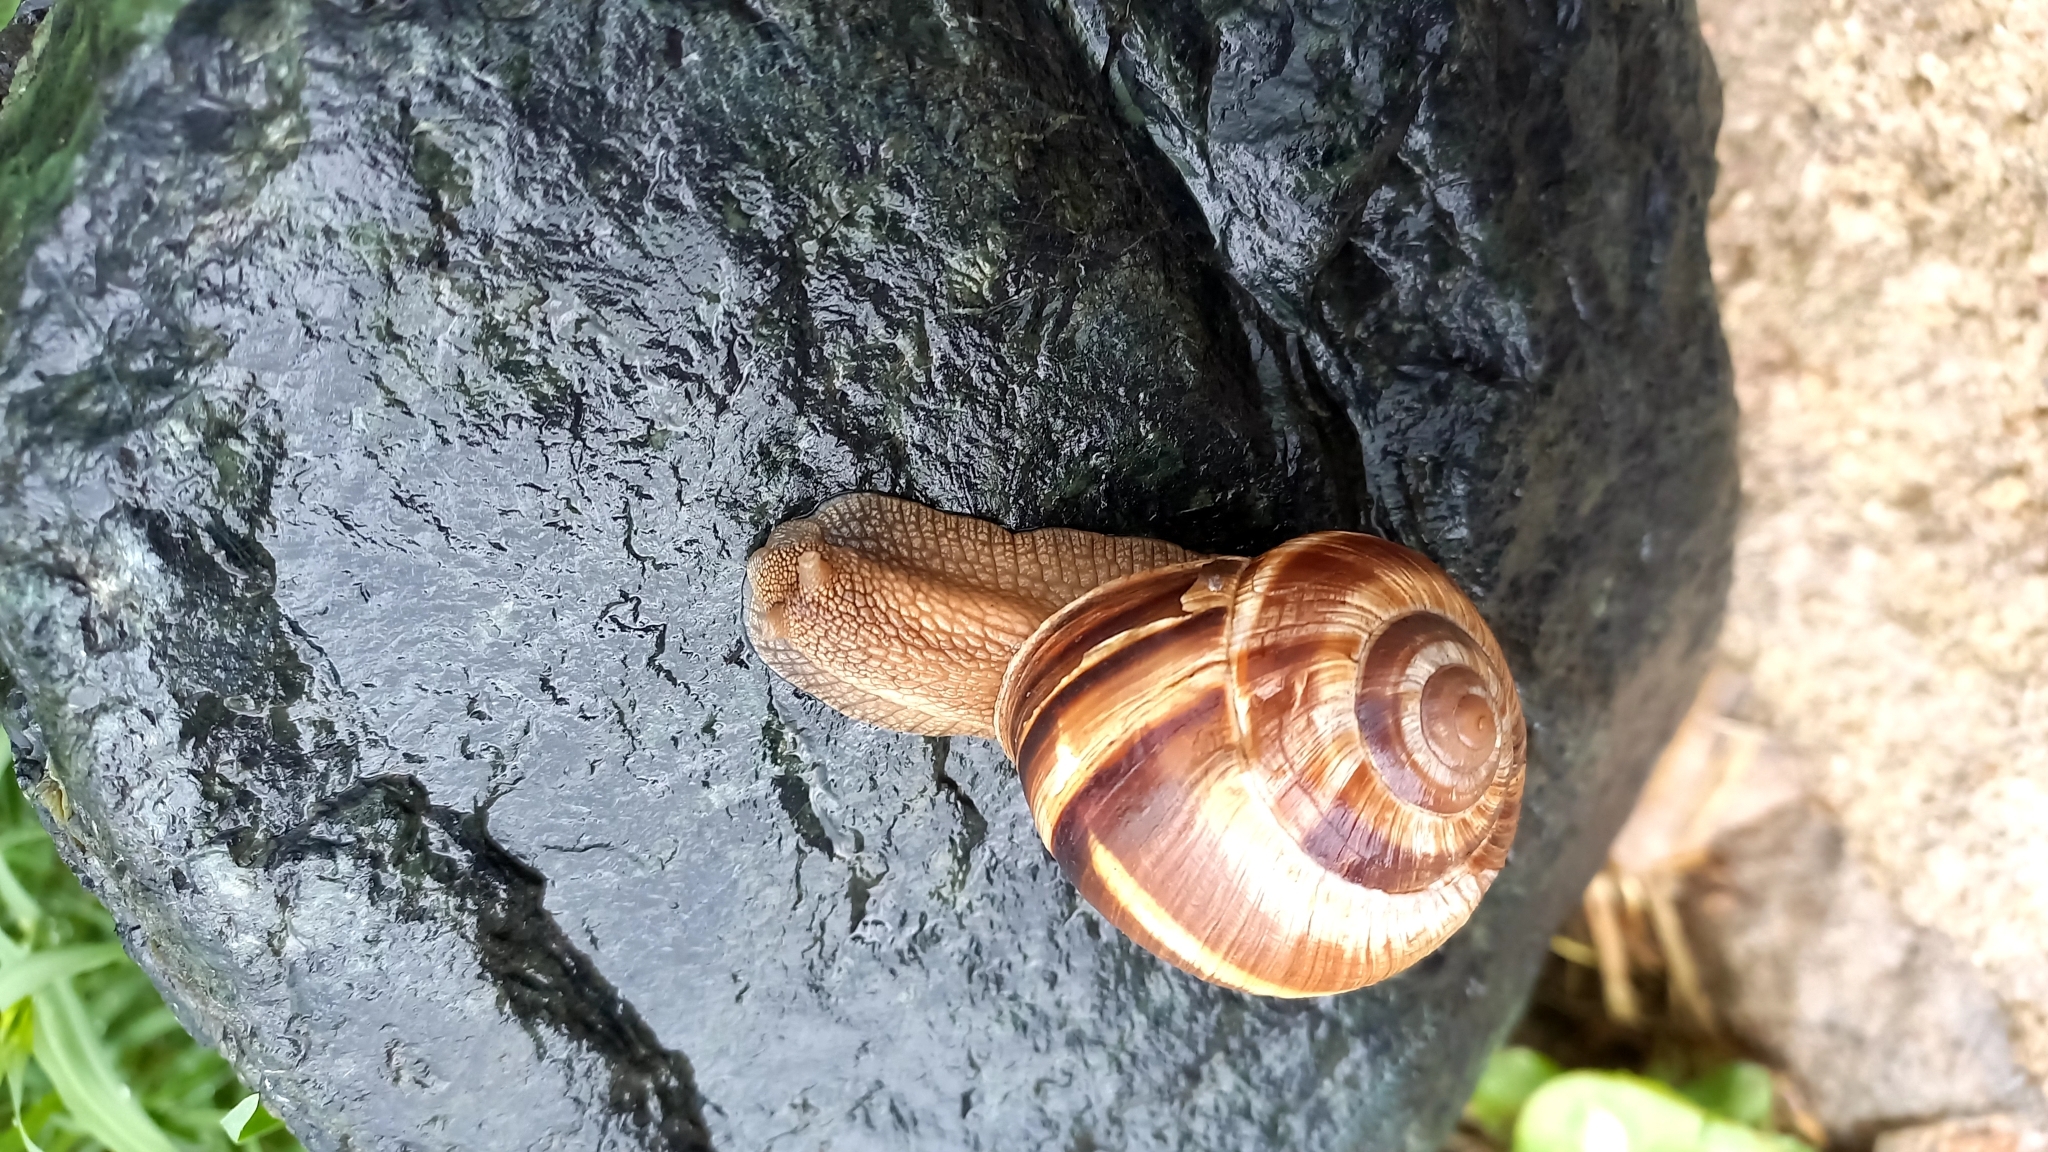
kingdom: Animalia
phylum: Mollusca
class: Gastropoda
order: Stylommatophora
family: Helicidae
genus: Helix
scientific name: Helix lucorum
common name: Turkish snail
